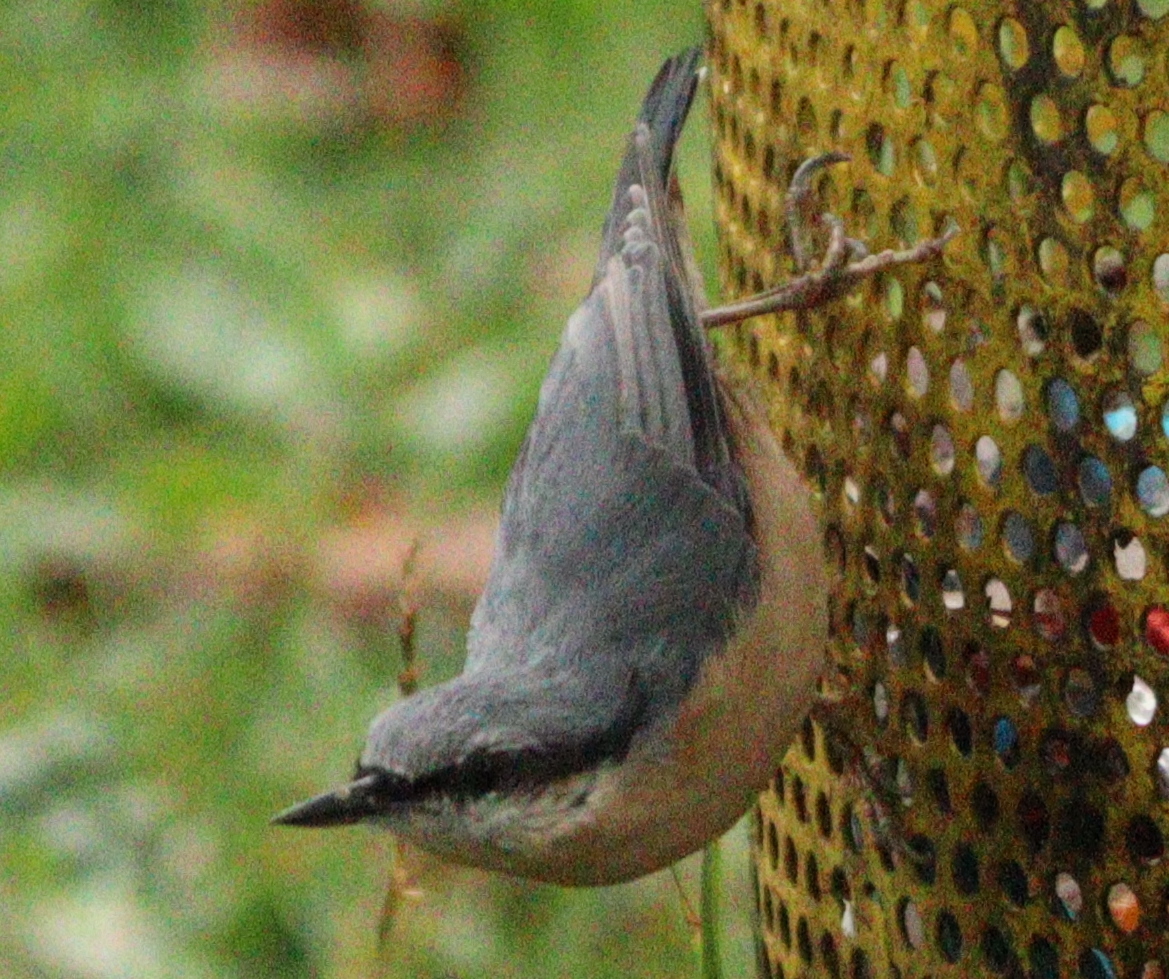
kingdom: Animalia
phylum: Chordata
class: Aves
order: Passeriformes
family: Sittidae
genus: Sitta
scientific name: Sitta europaea
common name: Eurasian nuthatch
